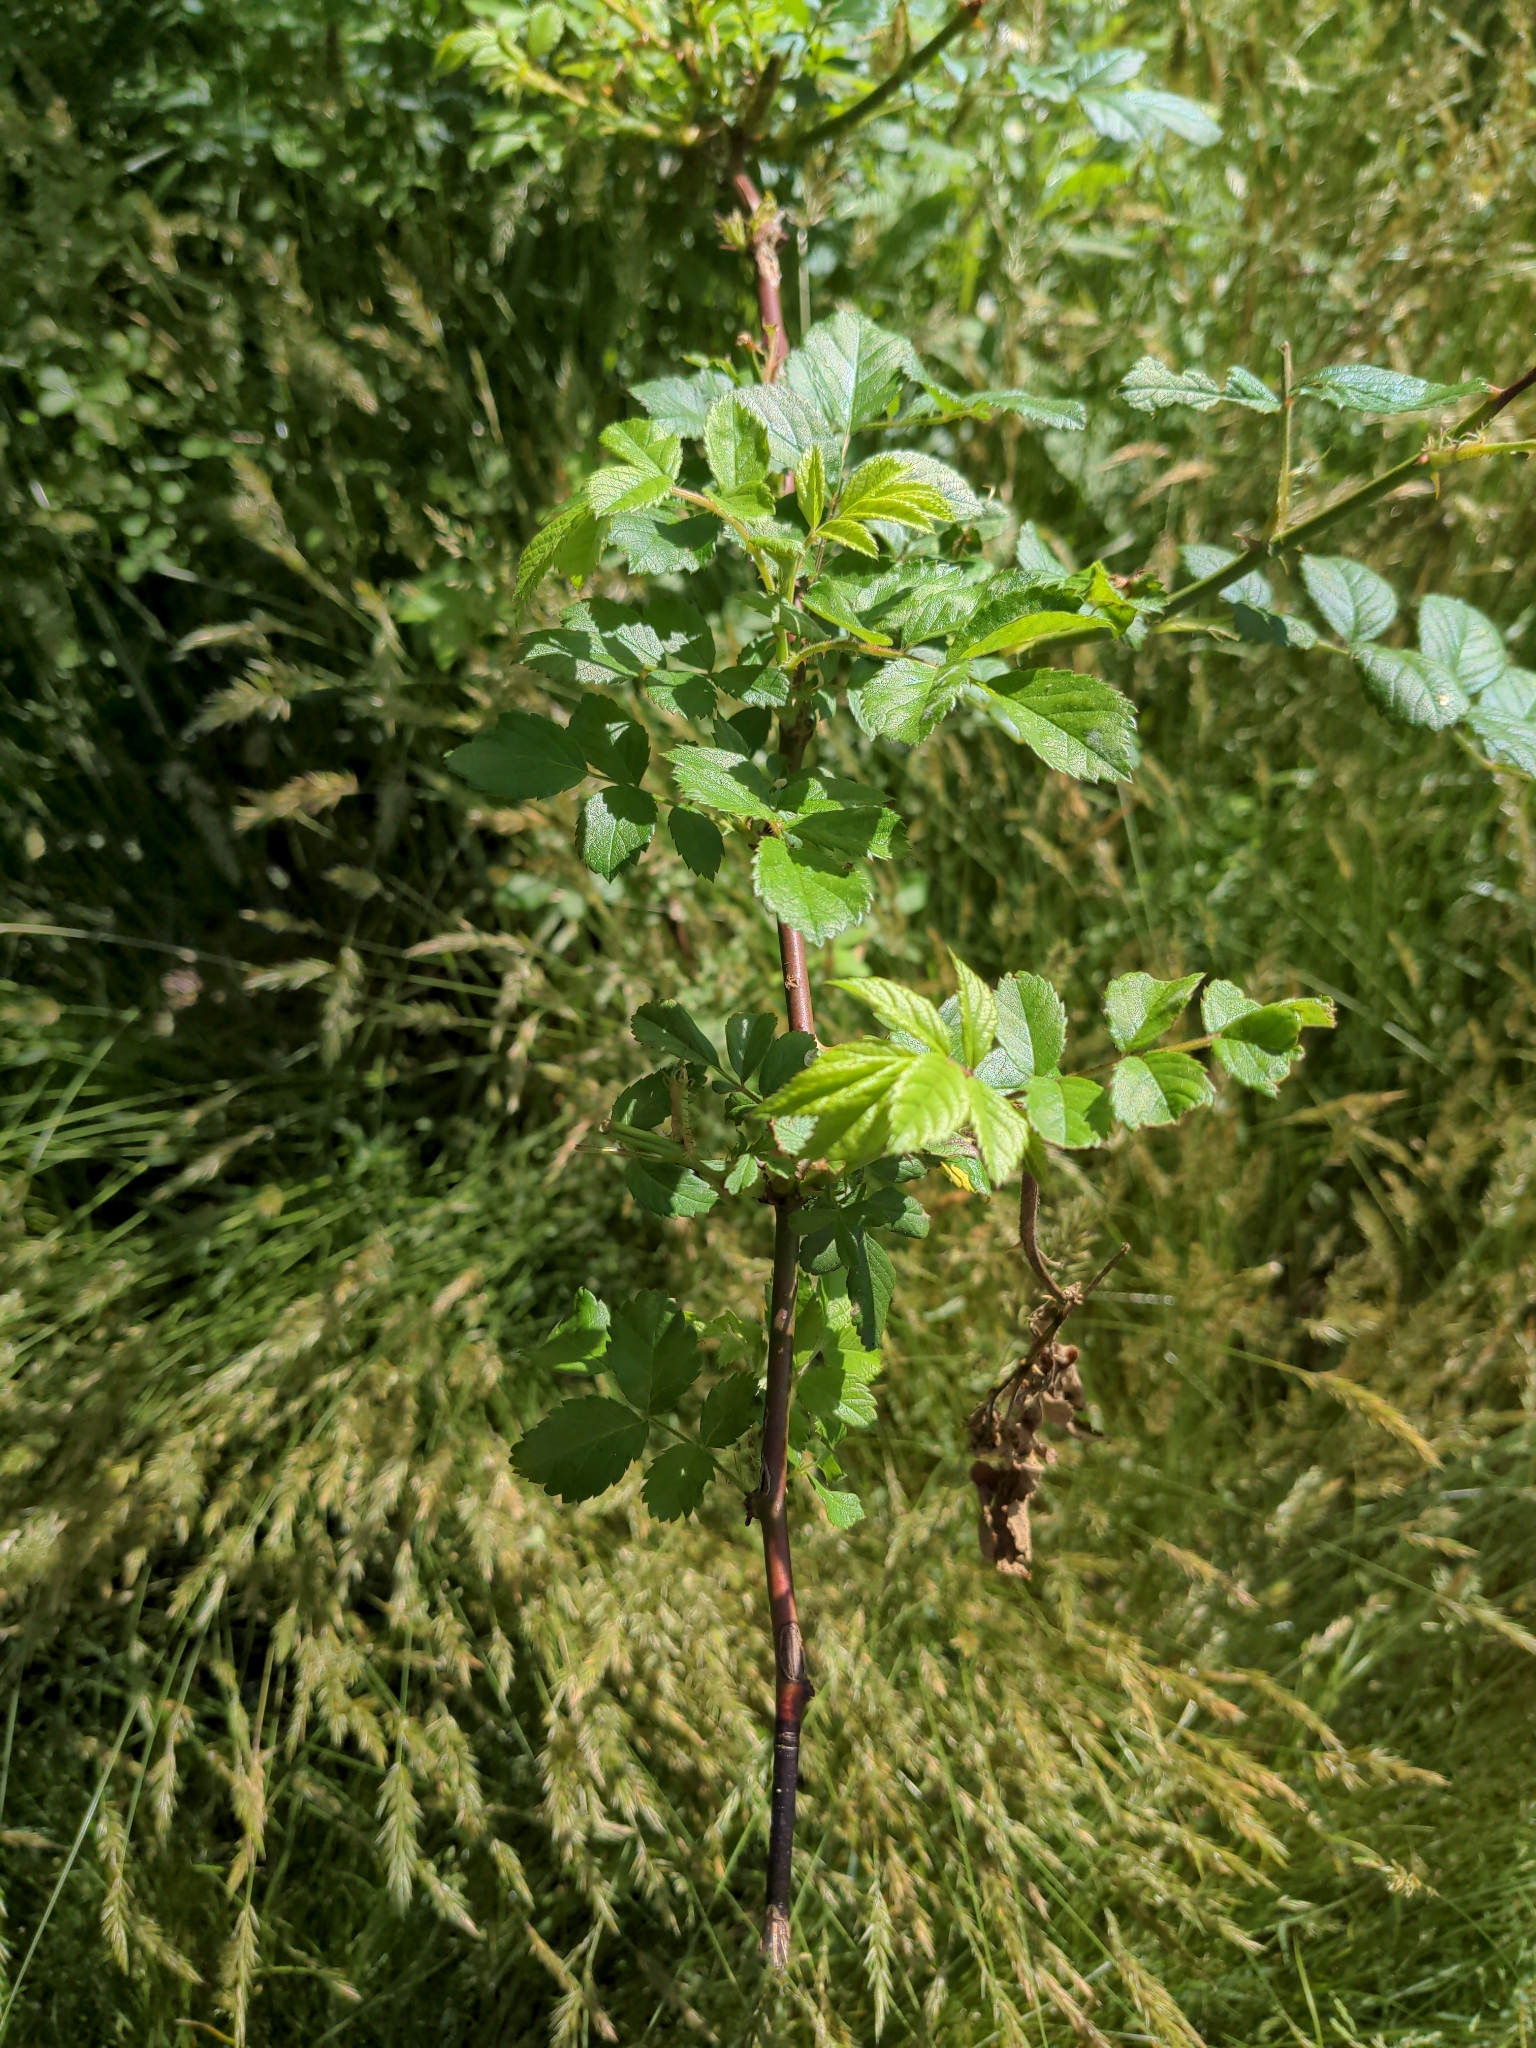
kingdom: Plantae
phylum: Tracheophyta
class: Magnoliopsida
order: Rosales
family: Rosaceae
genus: Rosa
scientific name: Rosa multiflora
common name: Multiflora rose
